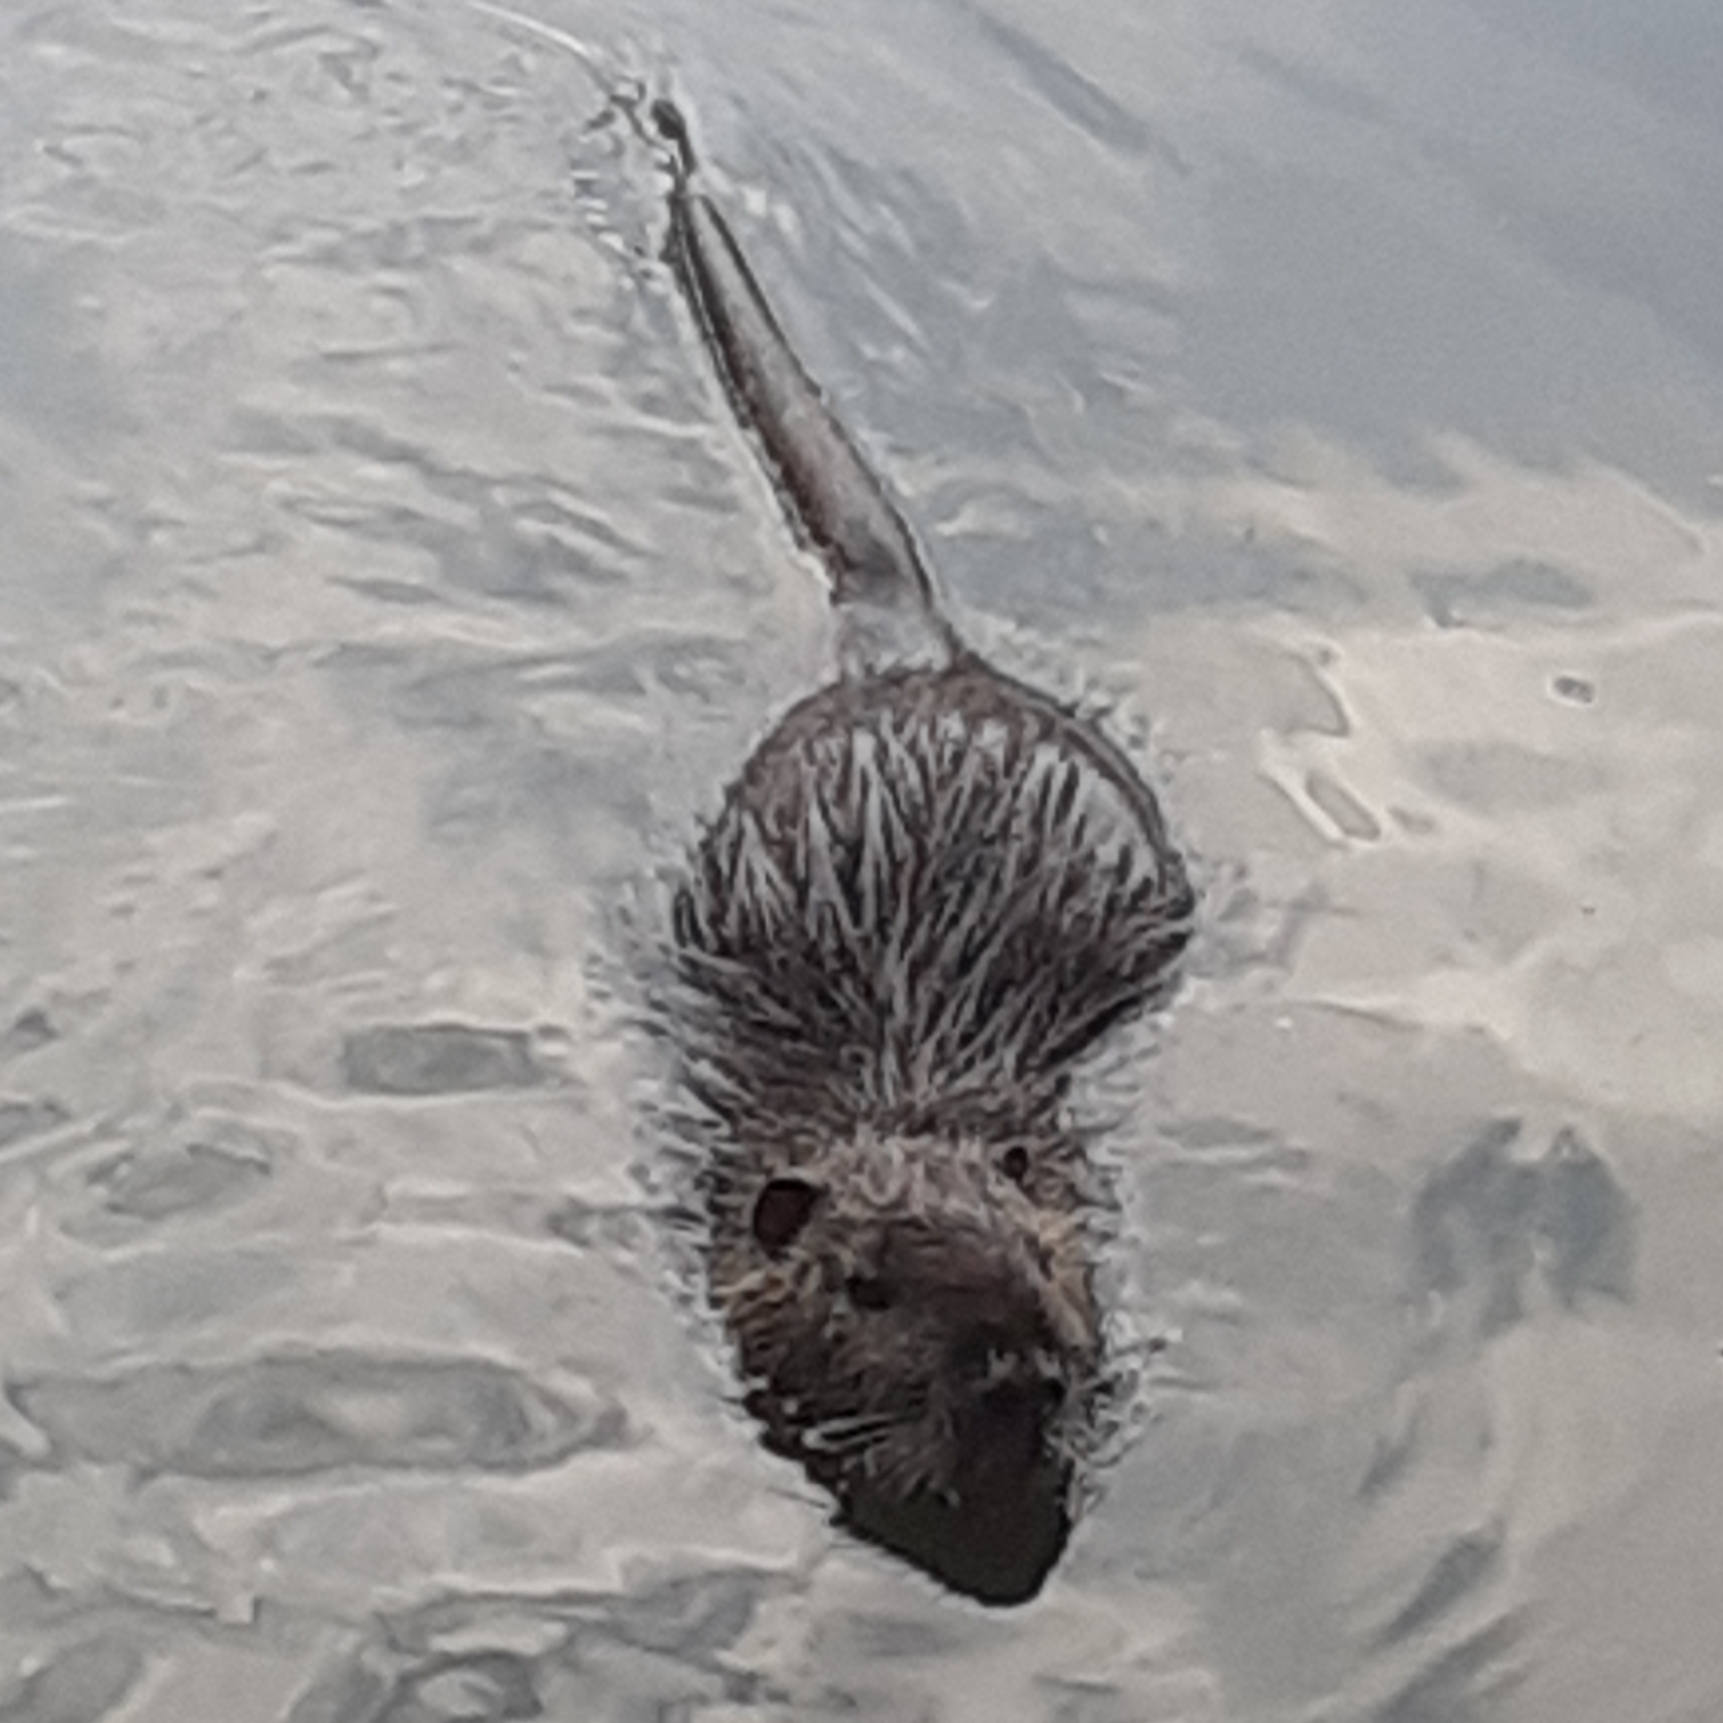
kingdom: Animalia
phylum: Chordata
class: Mammalia
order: Rodentia
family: Myocastoridae
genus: Myocastor
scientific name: Myocastor coypus
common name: Coypu
